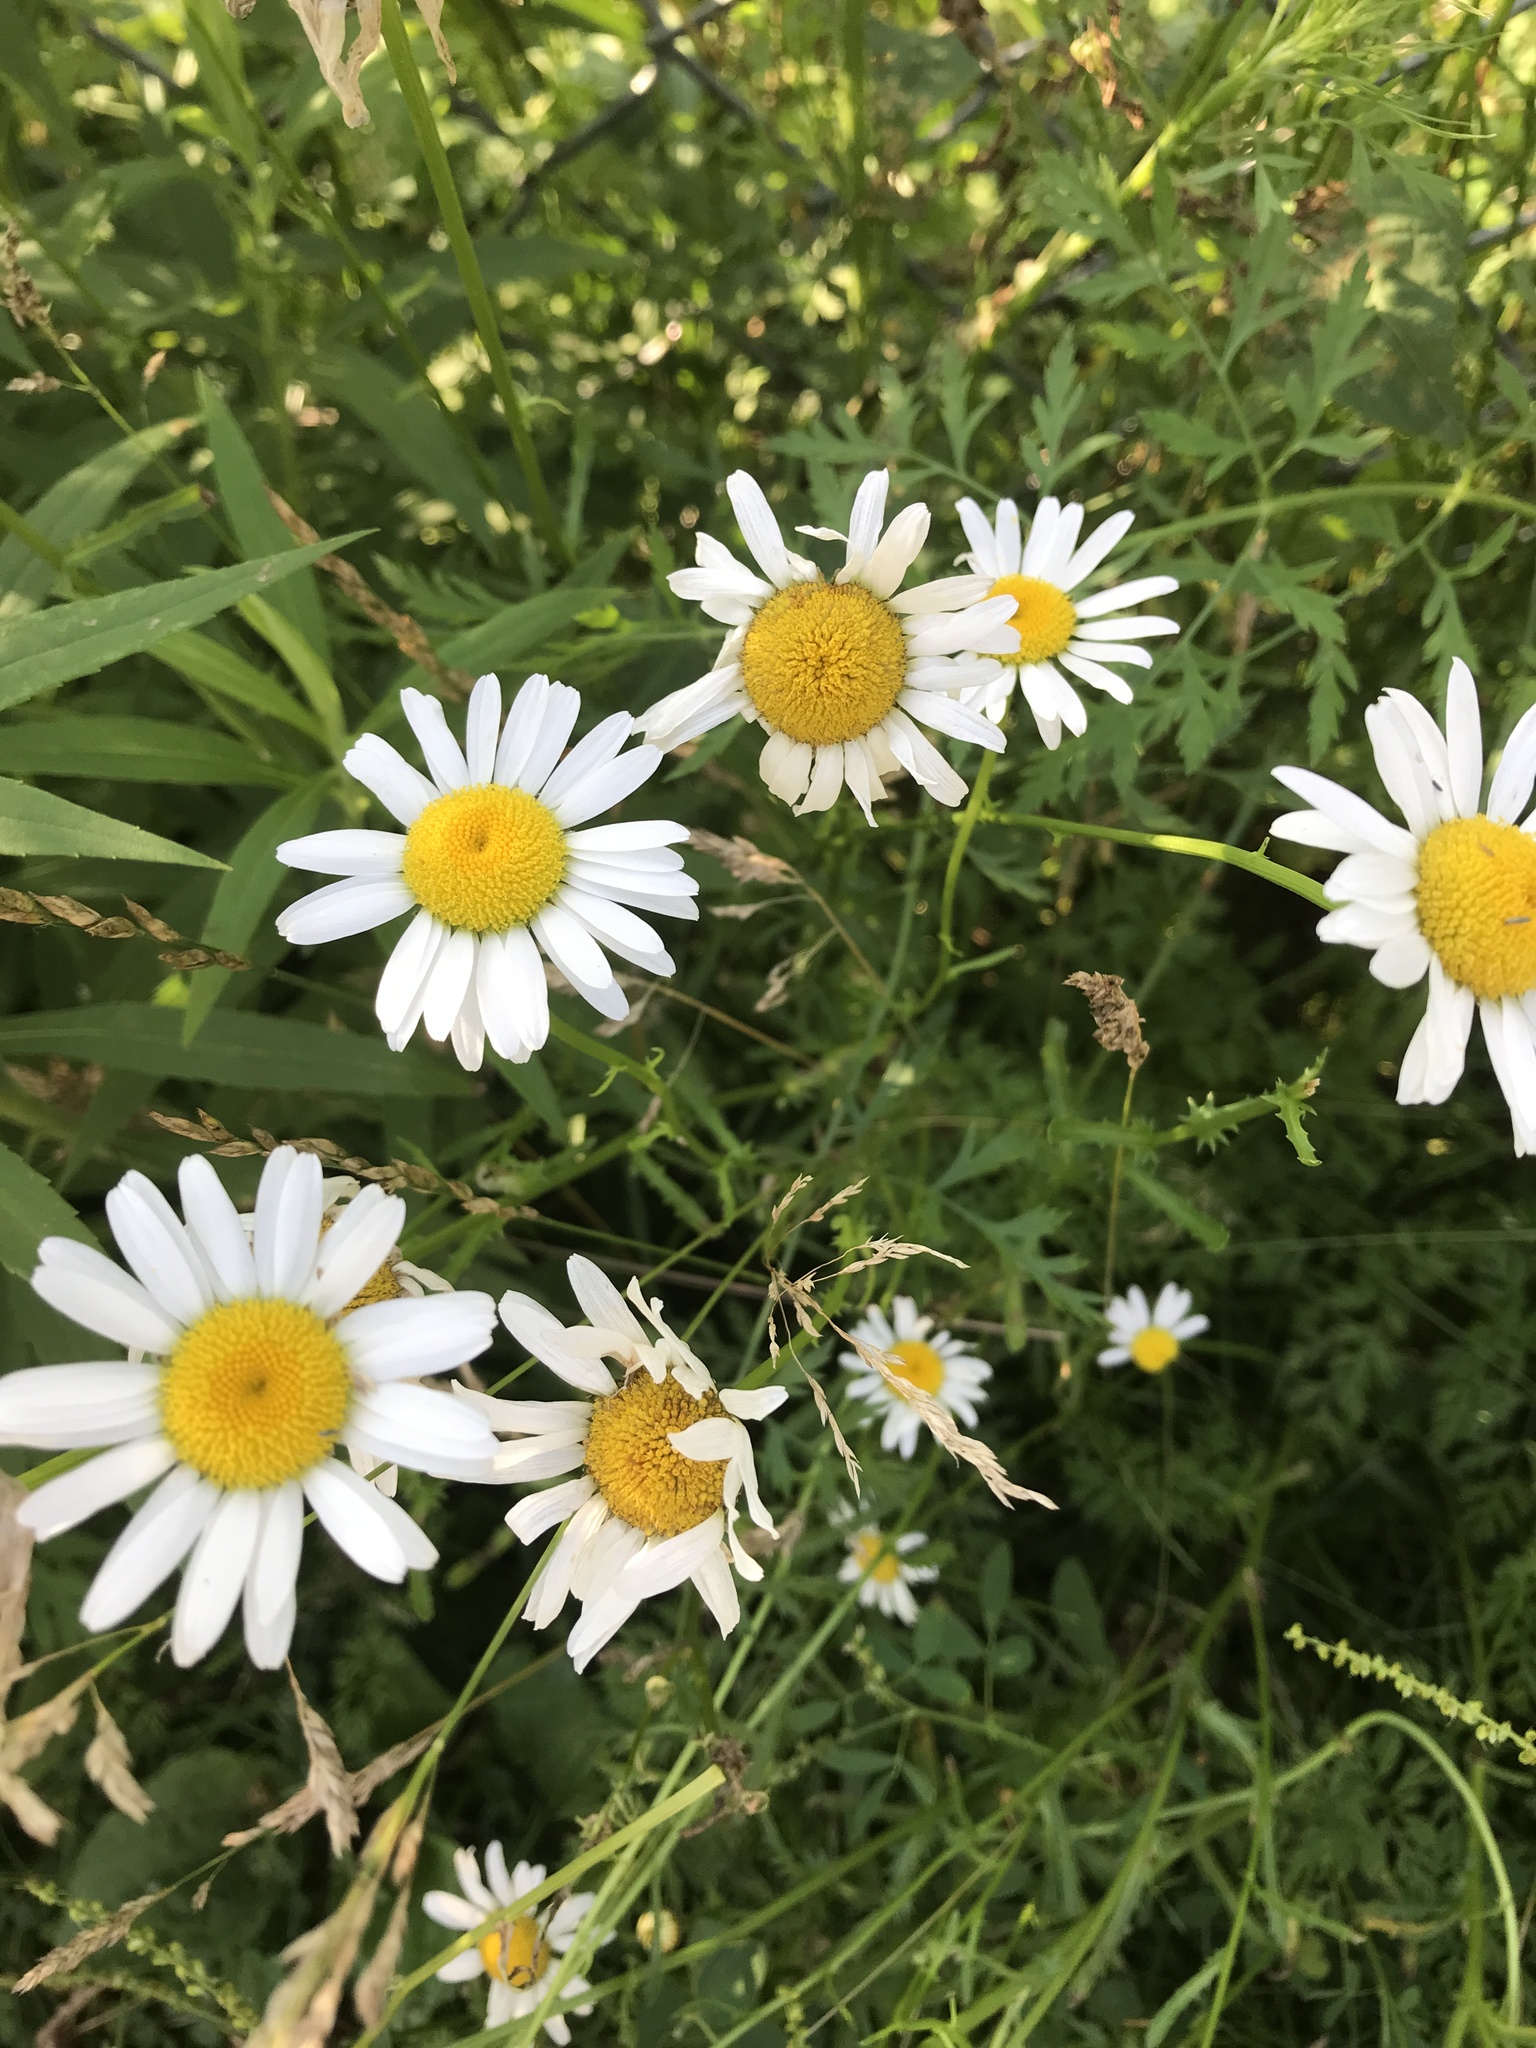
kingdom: Plantae
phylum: Tracheophyta
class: Magnoliopsida
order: Asterales
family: Asteraceae
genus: Leucanthemum
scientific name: Leucanthemum vulgare
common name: Oxeye daisy
